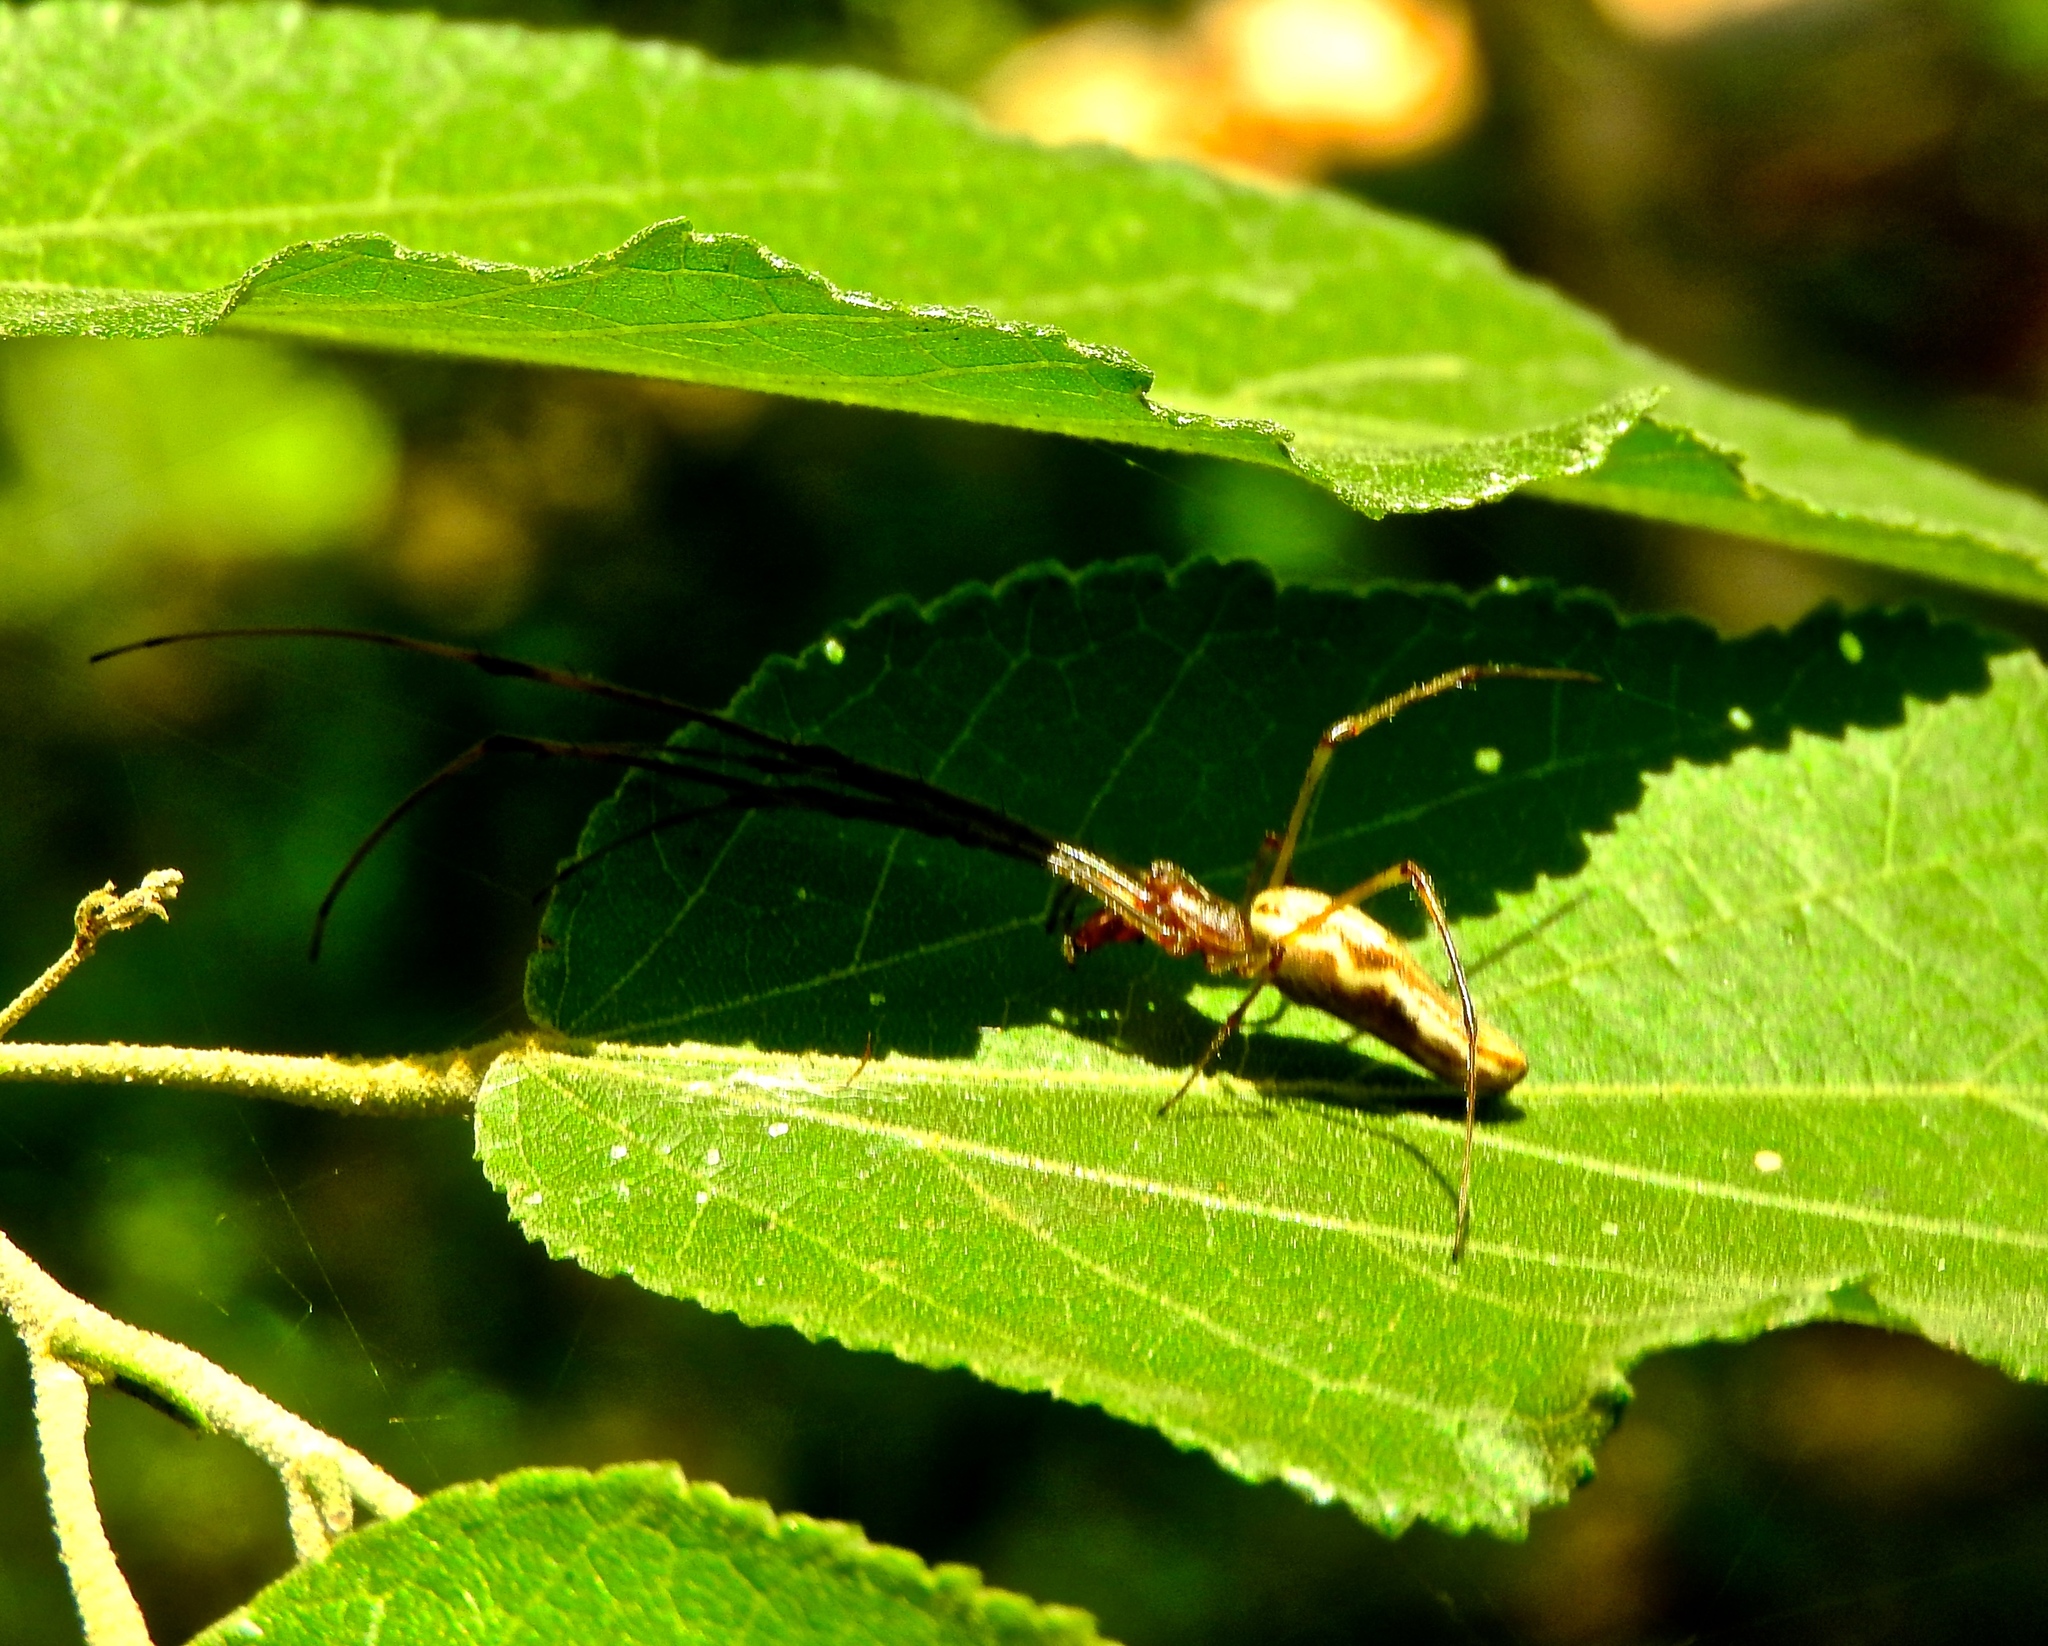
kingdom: Animalia
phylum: Arthropoda
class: Arachnida
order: Araneae
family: Tetragnathidae
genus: Tetragnatha
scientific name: Tetragnatha
